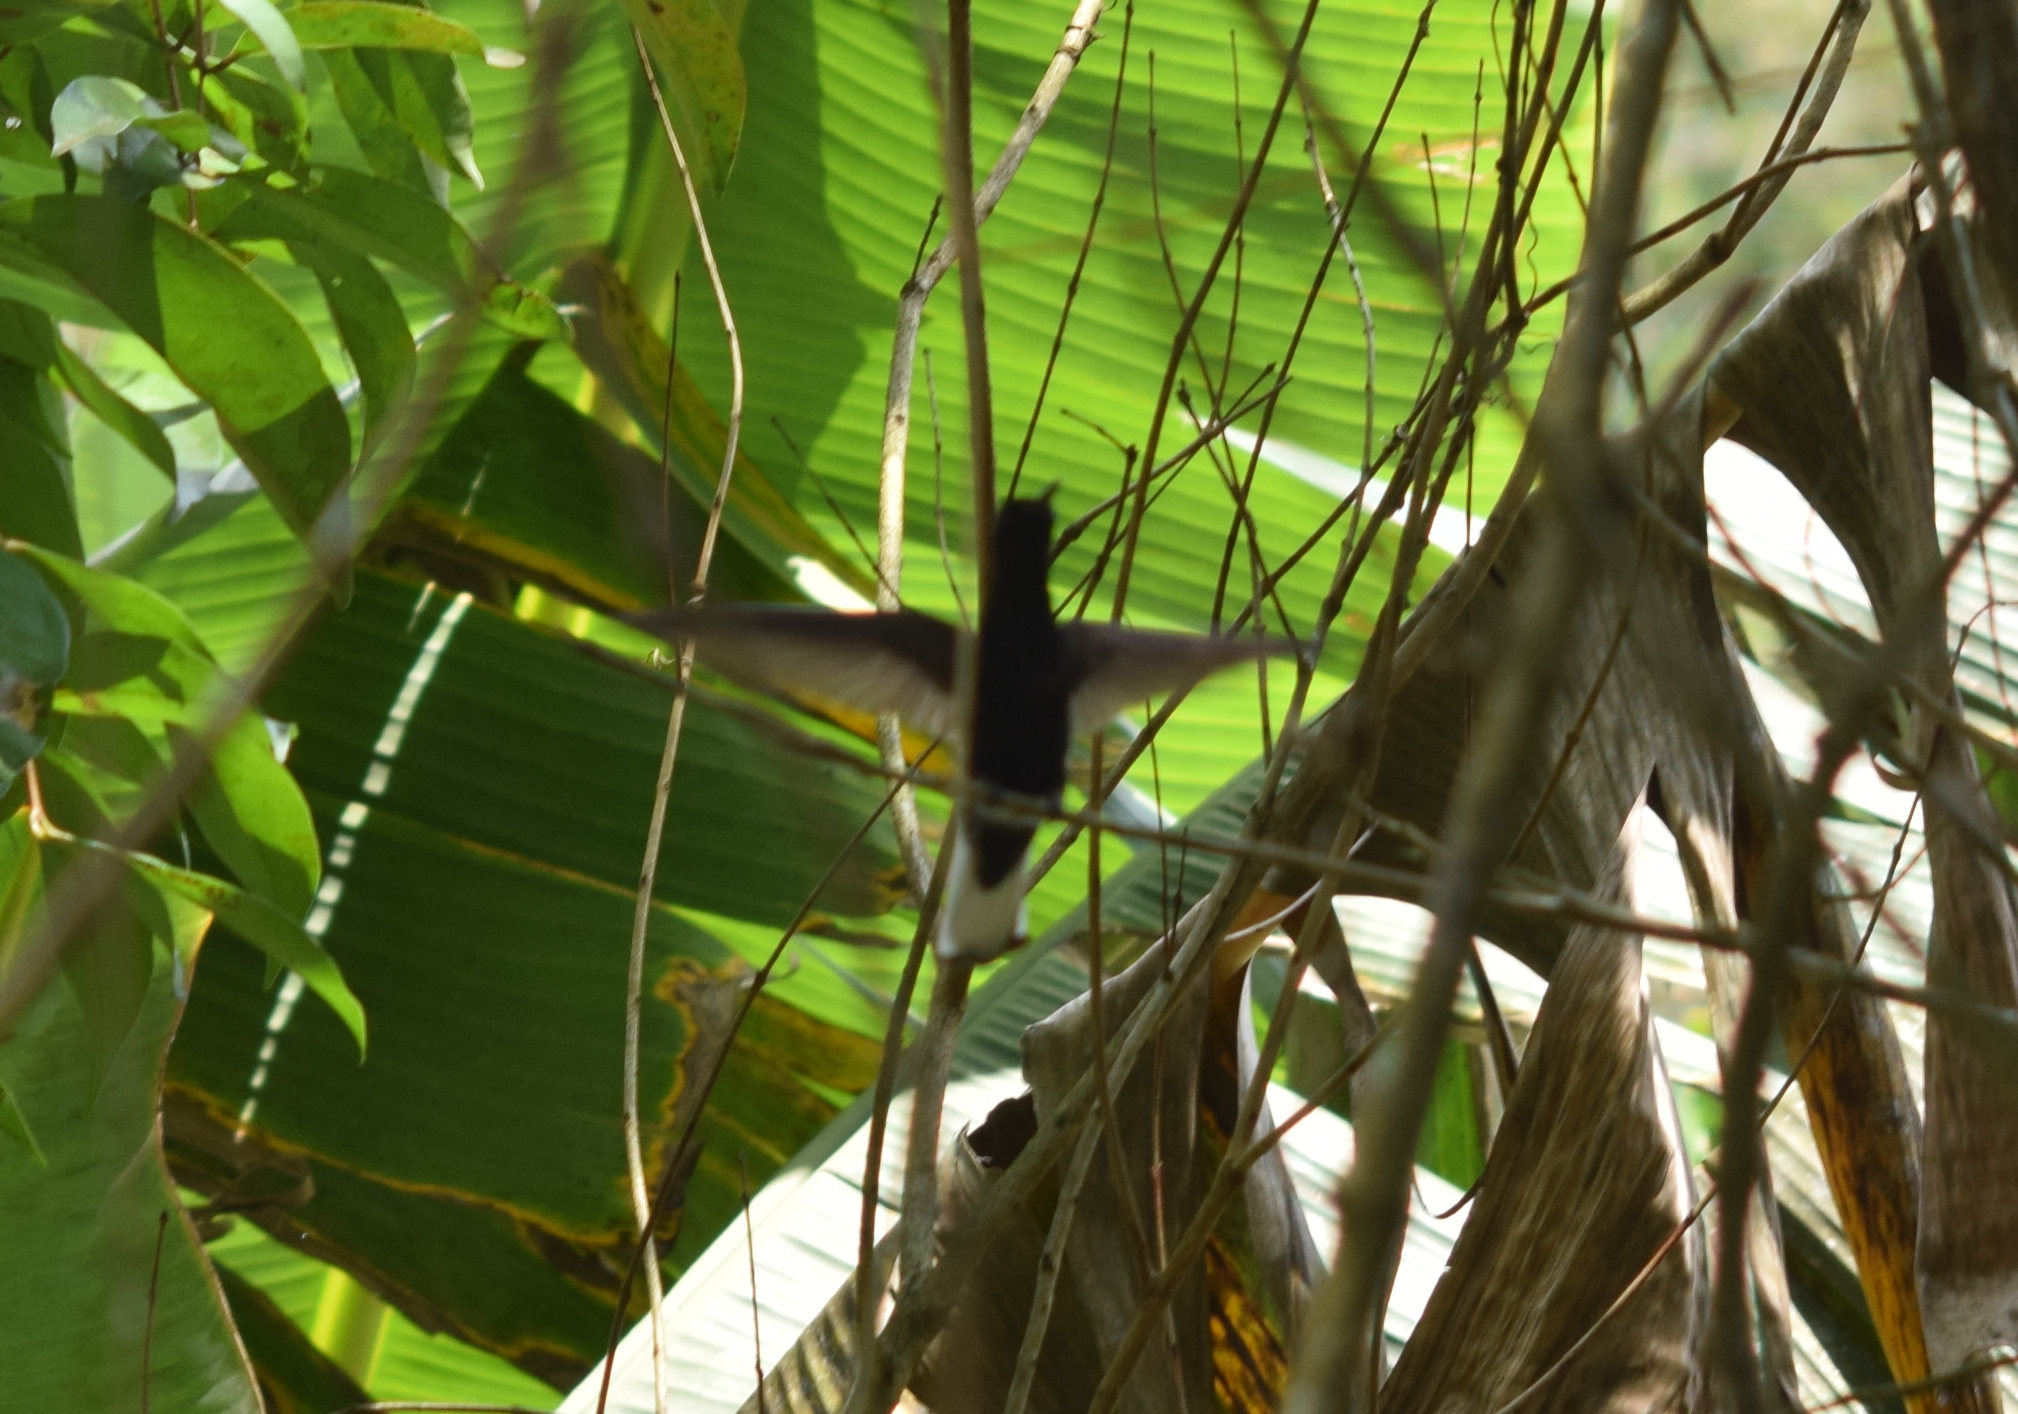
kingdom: Animalia
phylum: Chordata
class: Aves
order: Apodiformes
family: Trochilidae
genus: Florisuga
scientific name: Florisuga fusca
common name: Black jacobin
